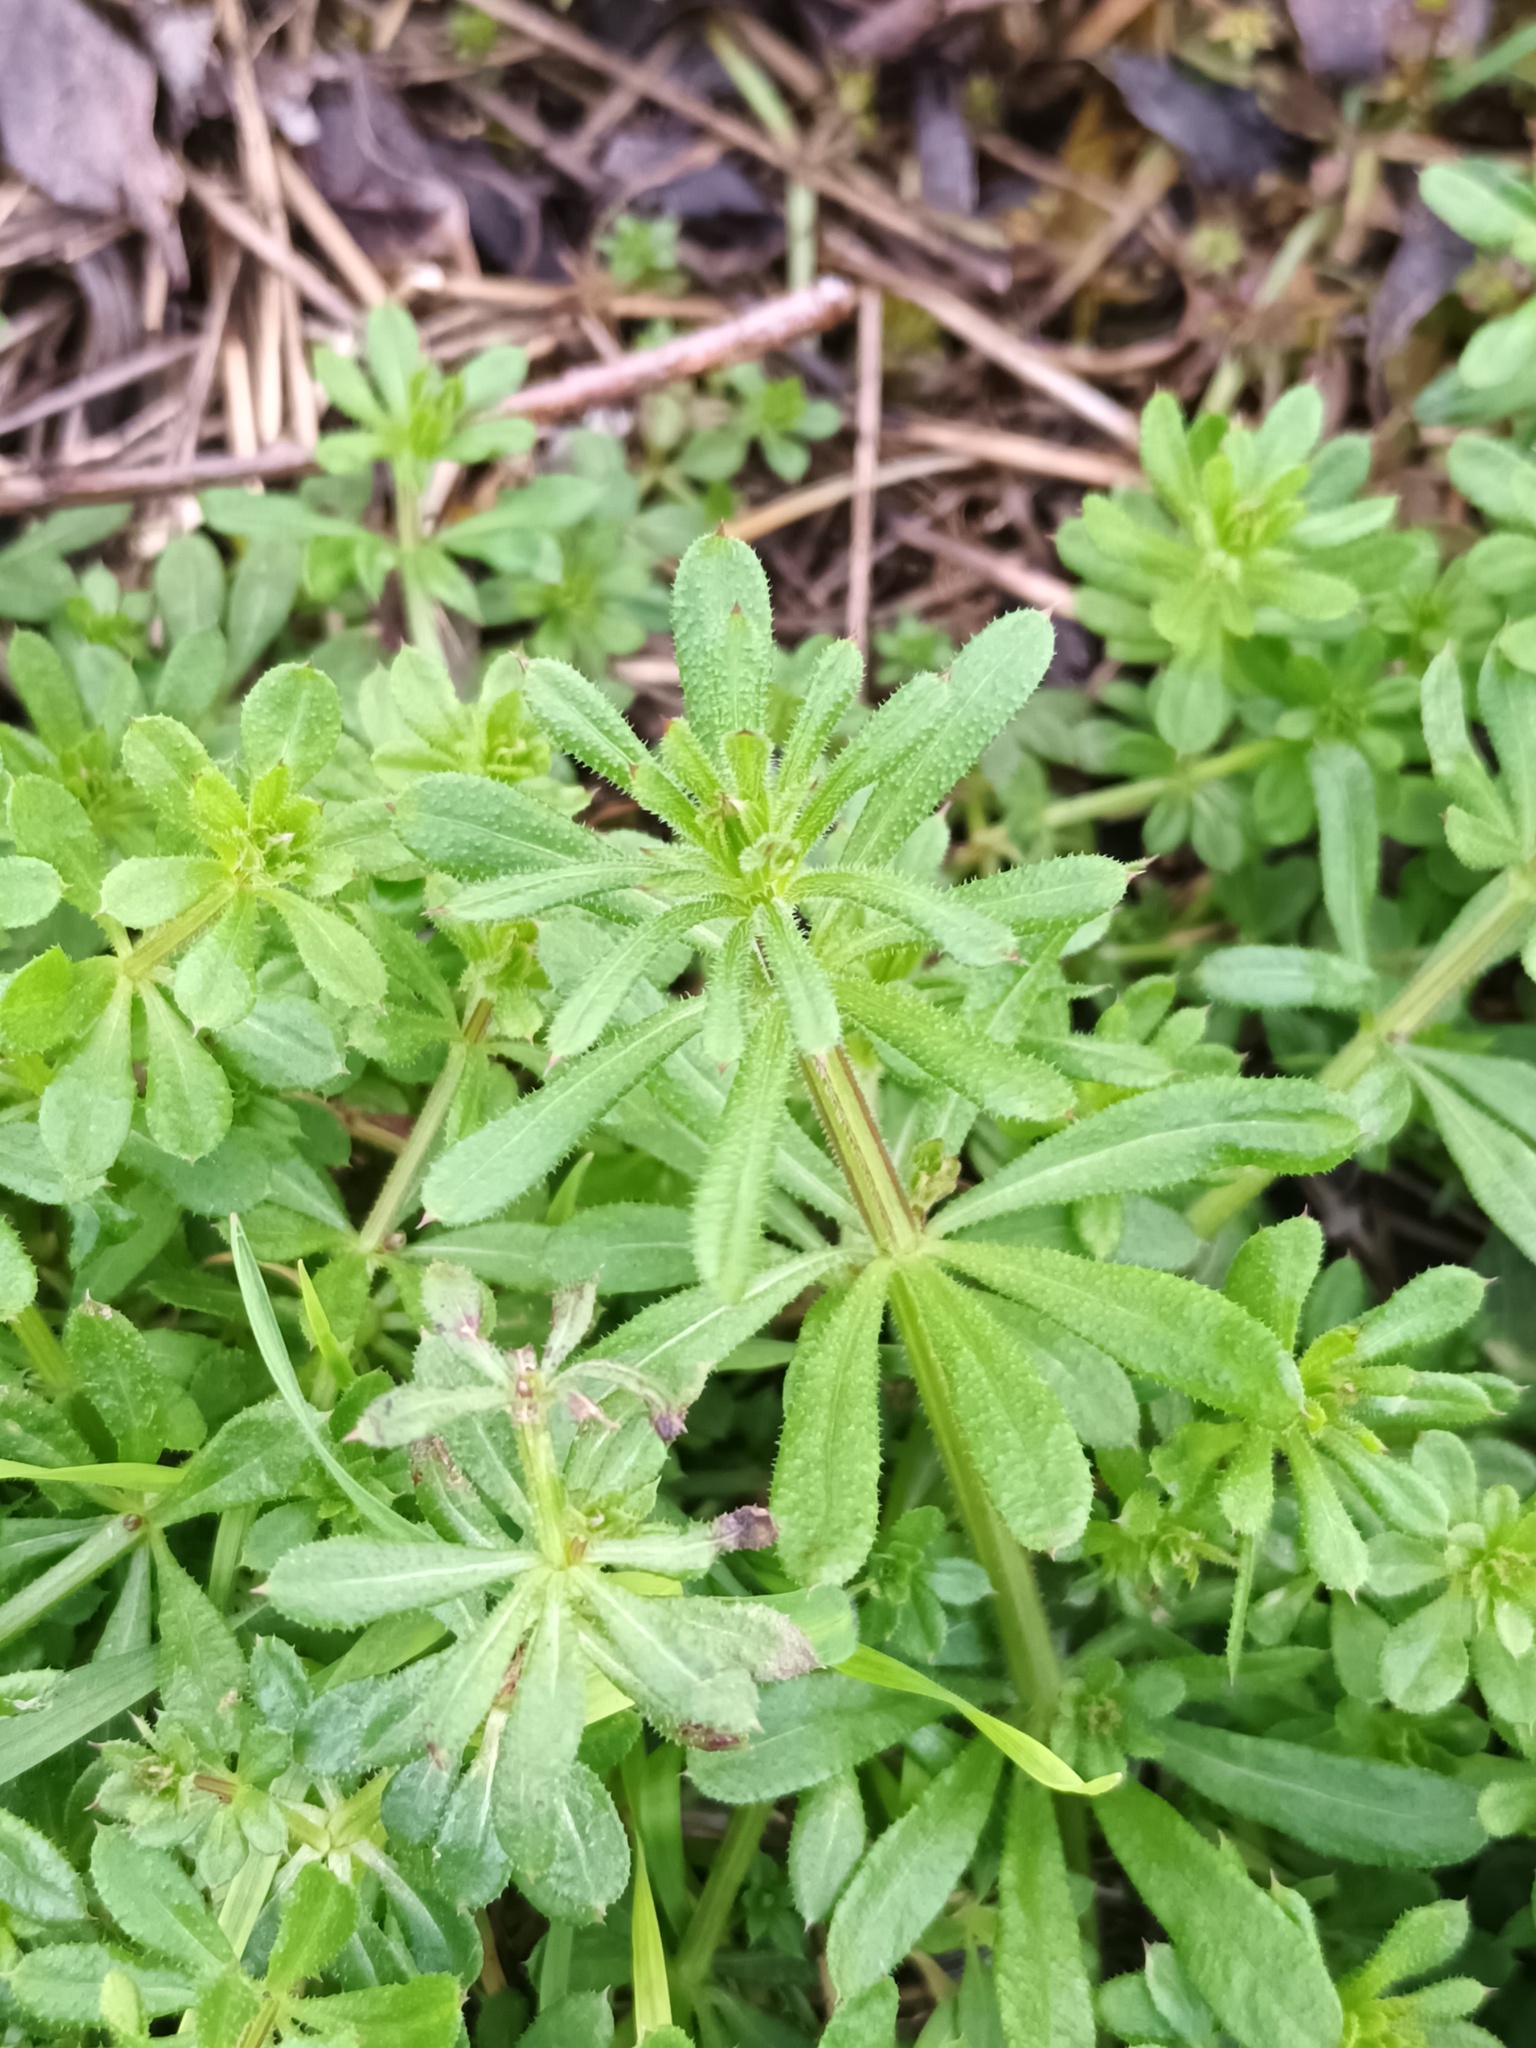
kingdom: Plantae
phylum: Tracheophyta
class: Magnoliopsida
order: Gentianales
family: Rubiaceae
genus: Galium
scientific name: Galium aparine
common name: Cleavers
